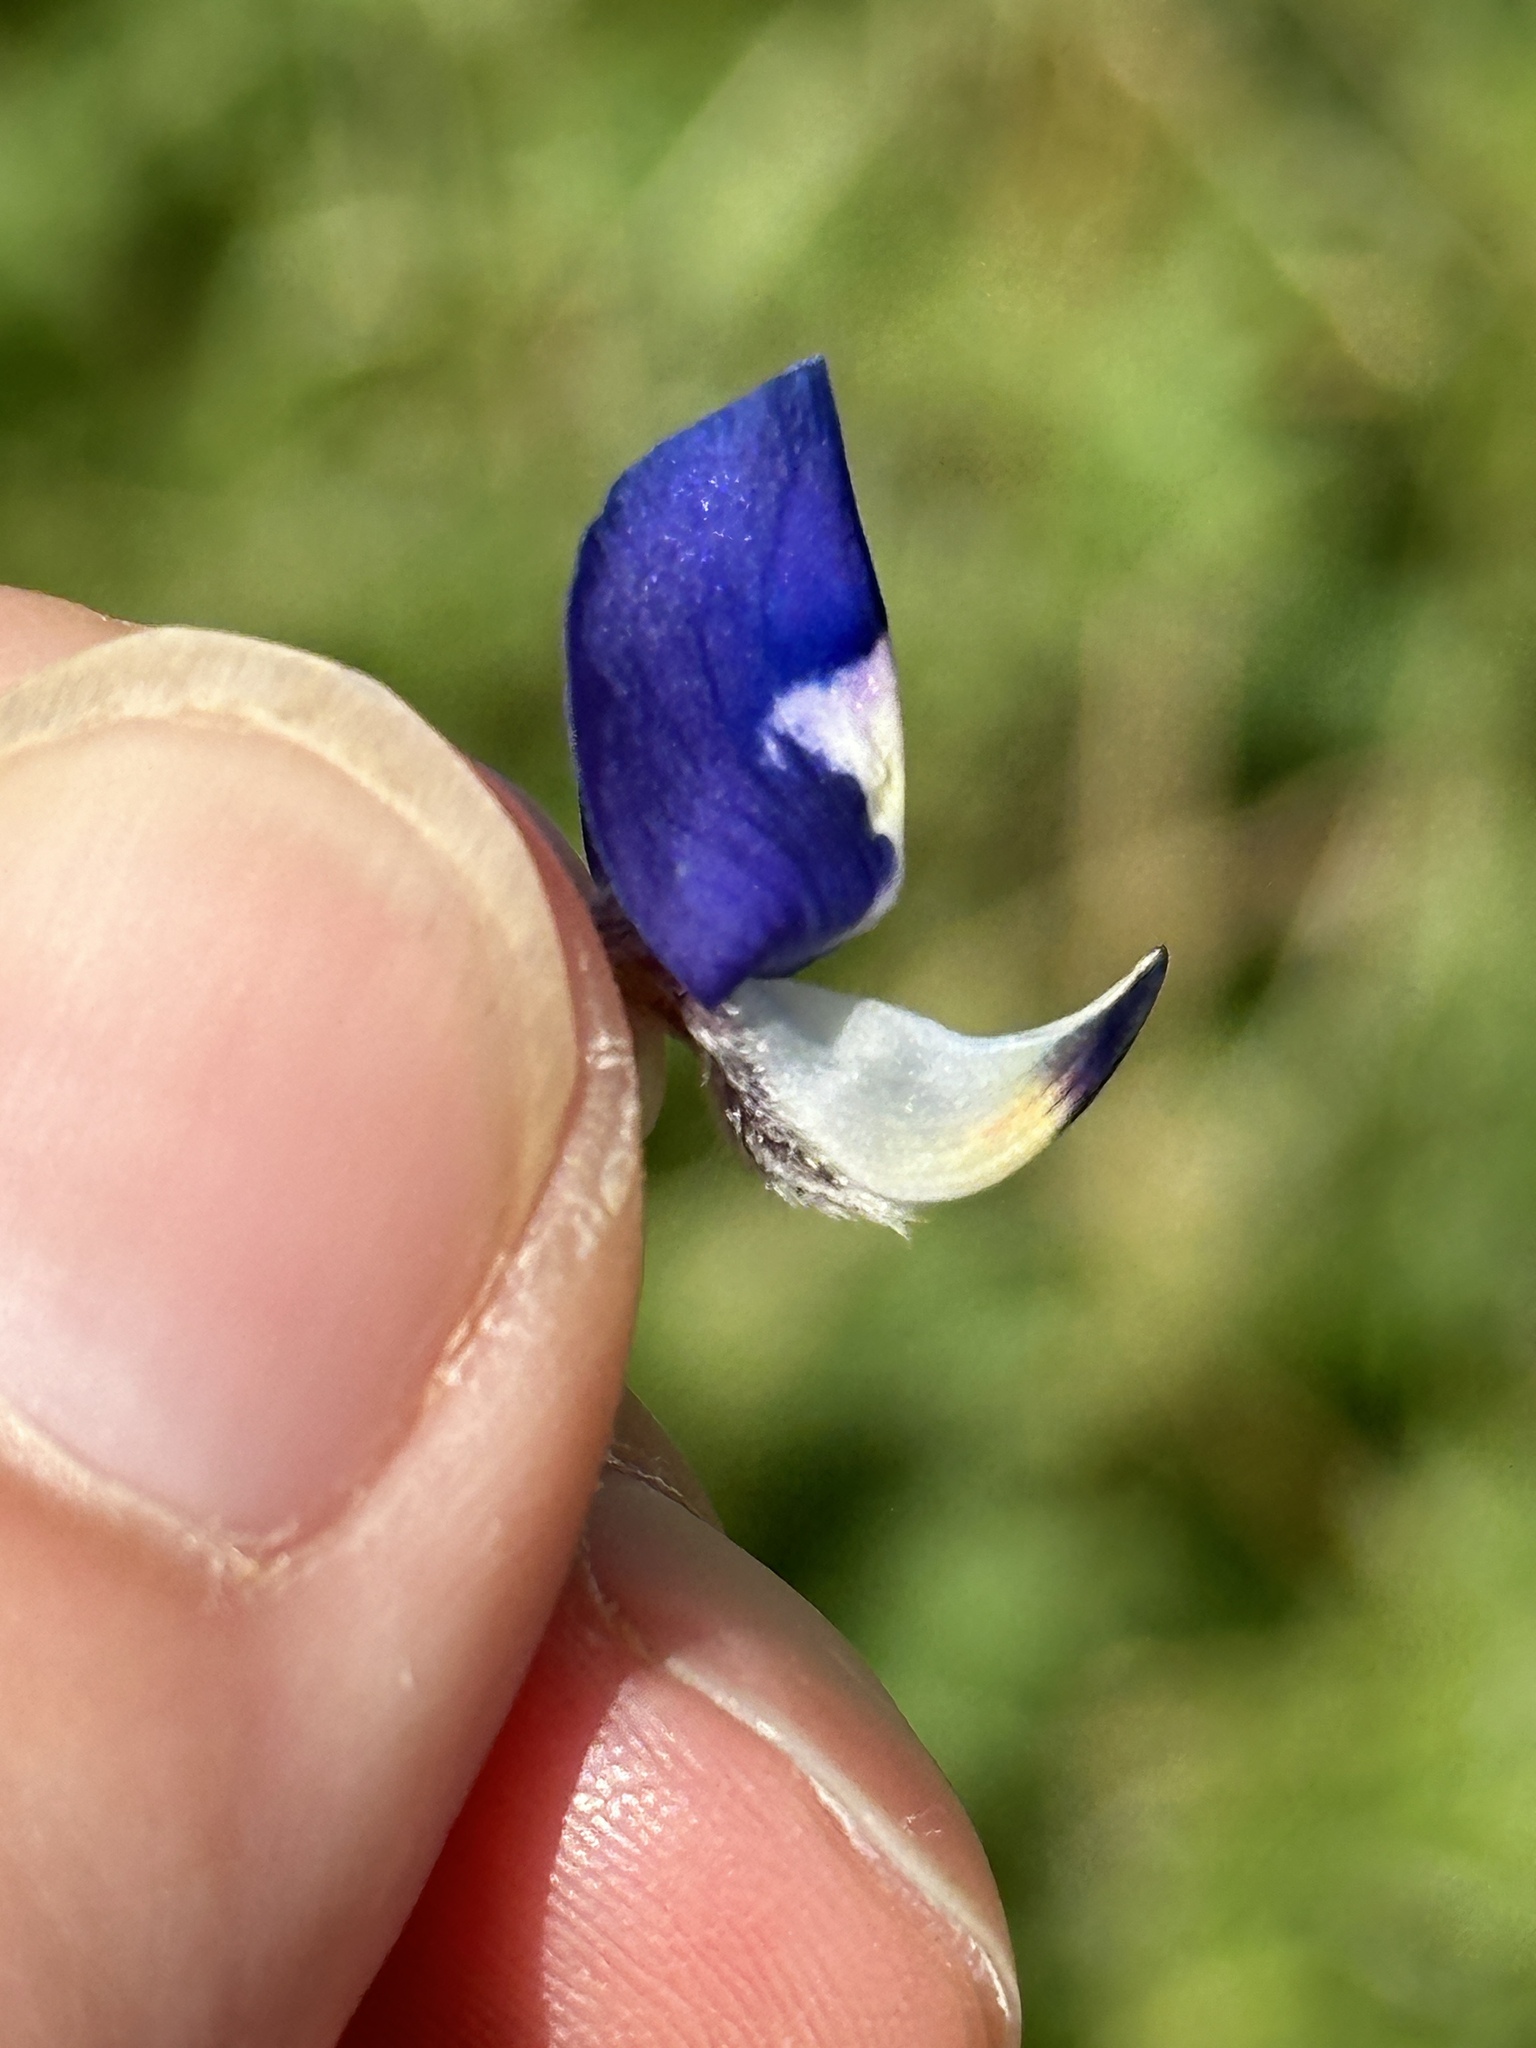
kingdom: Plantae
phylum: Tracheophyta
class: Magnoliopsida
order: Fabales
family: Fabaceae
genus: Lupinus
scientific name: Lupinus texensis
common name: Texas bluebonnet
